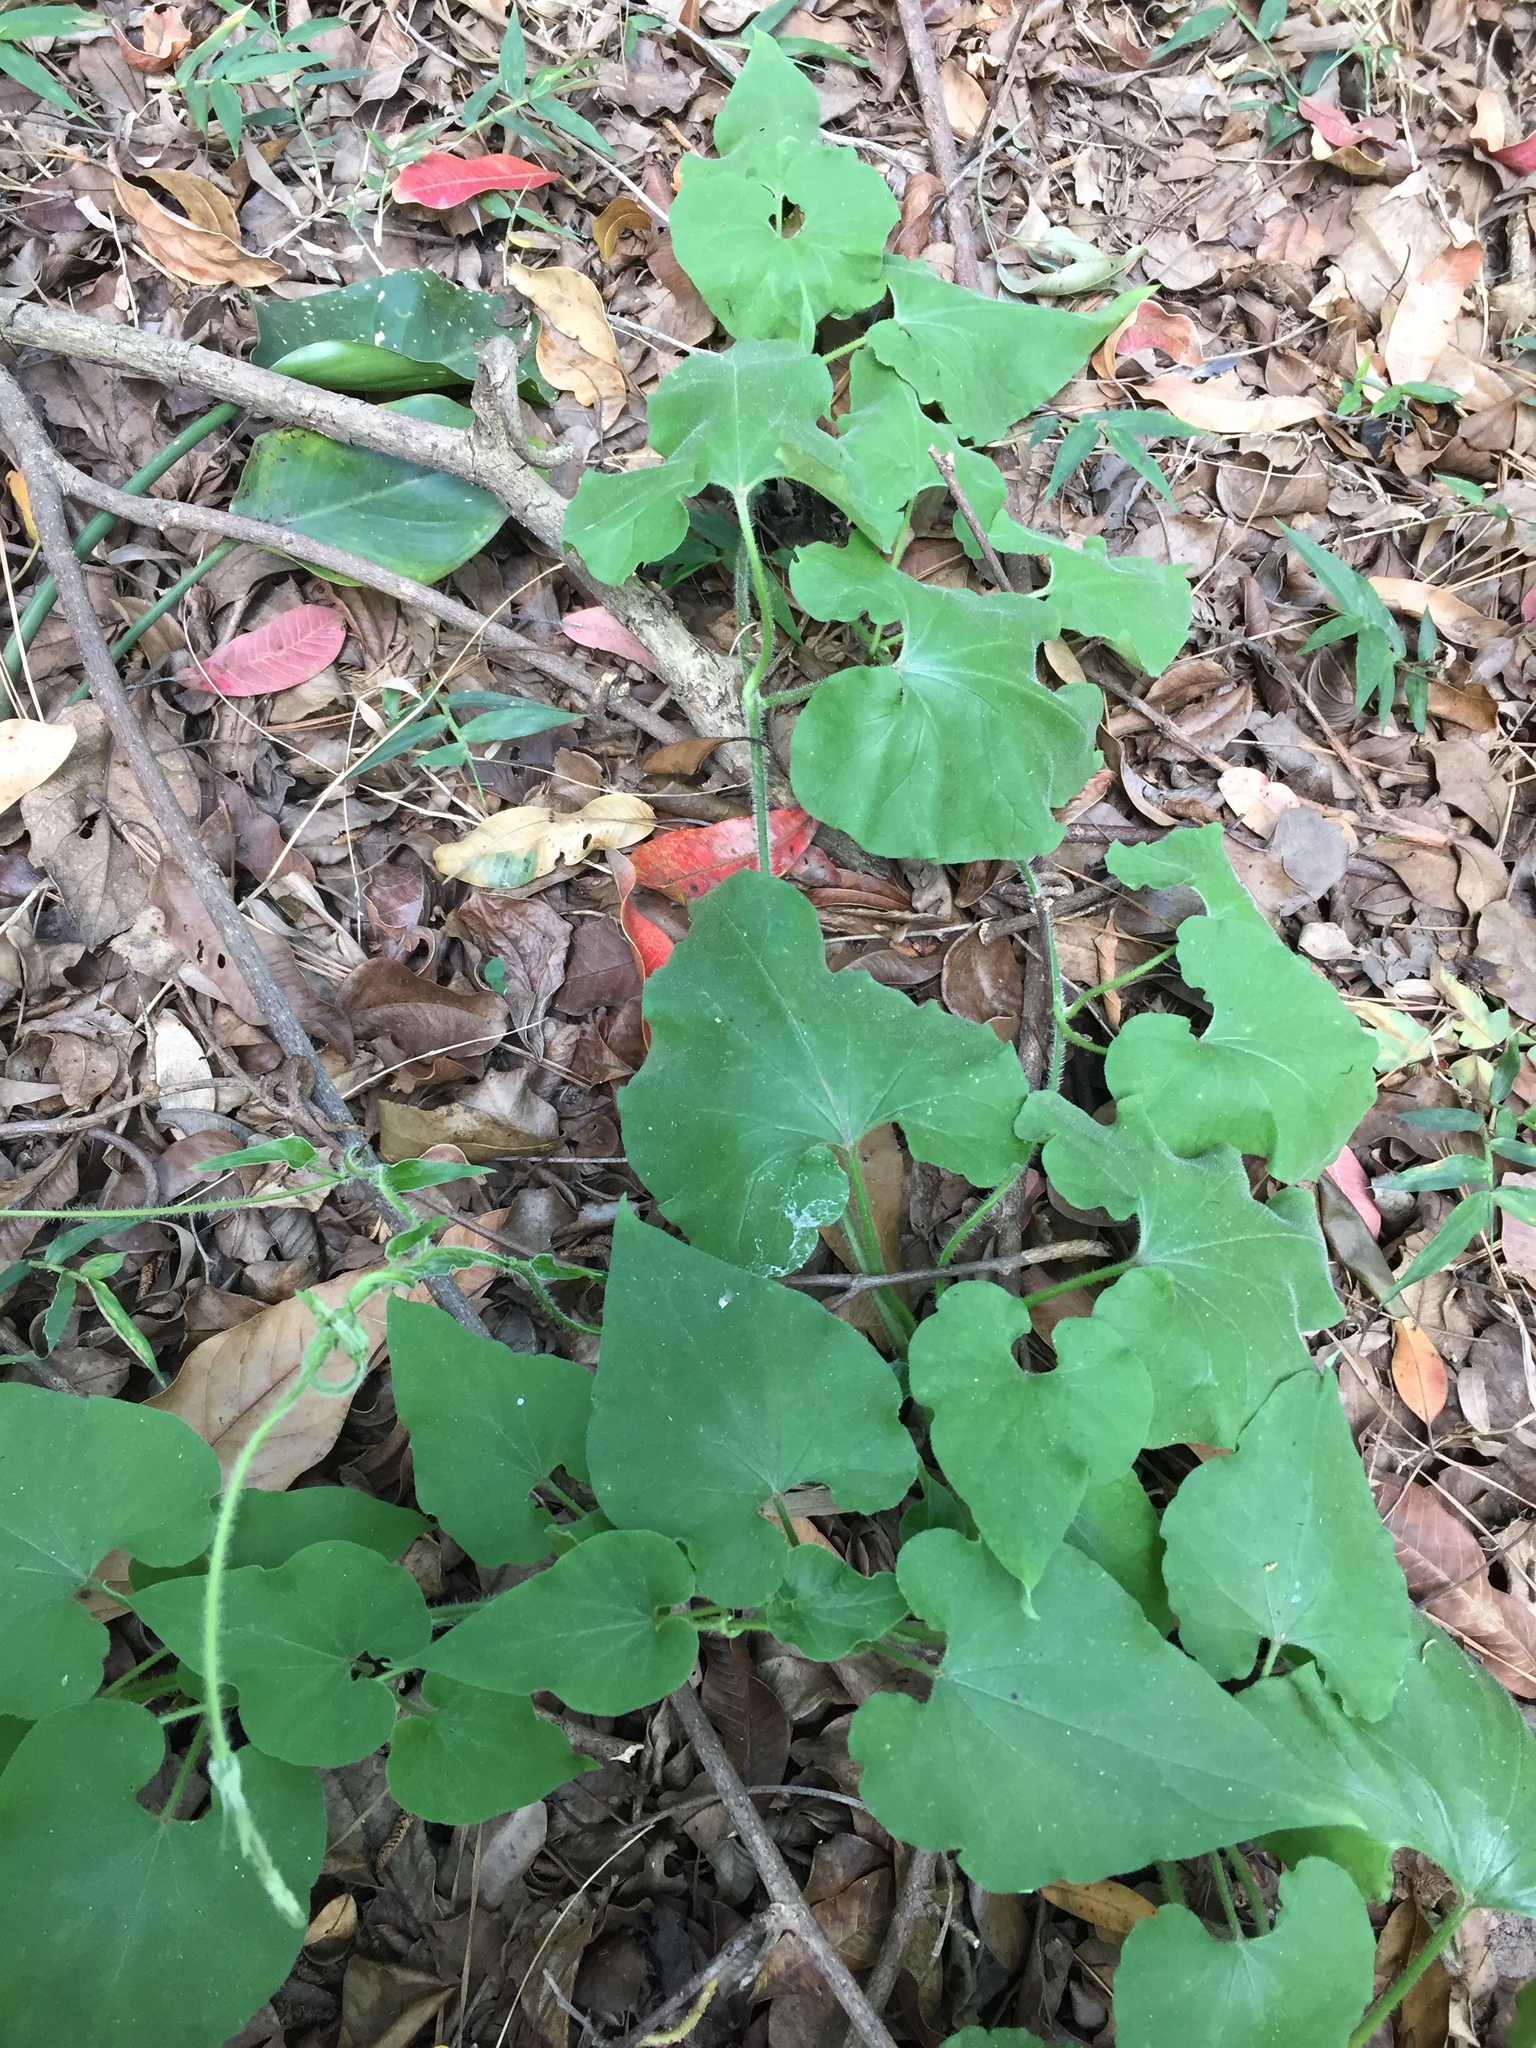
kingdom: Plantae
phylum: Tracheophyta
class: Magnoliopsida
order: Gentianales
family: Apocynaceae
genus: Riocreuxia
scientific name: Riocreuxia torulosa
